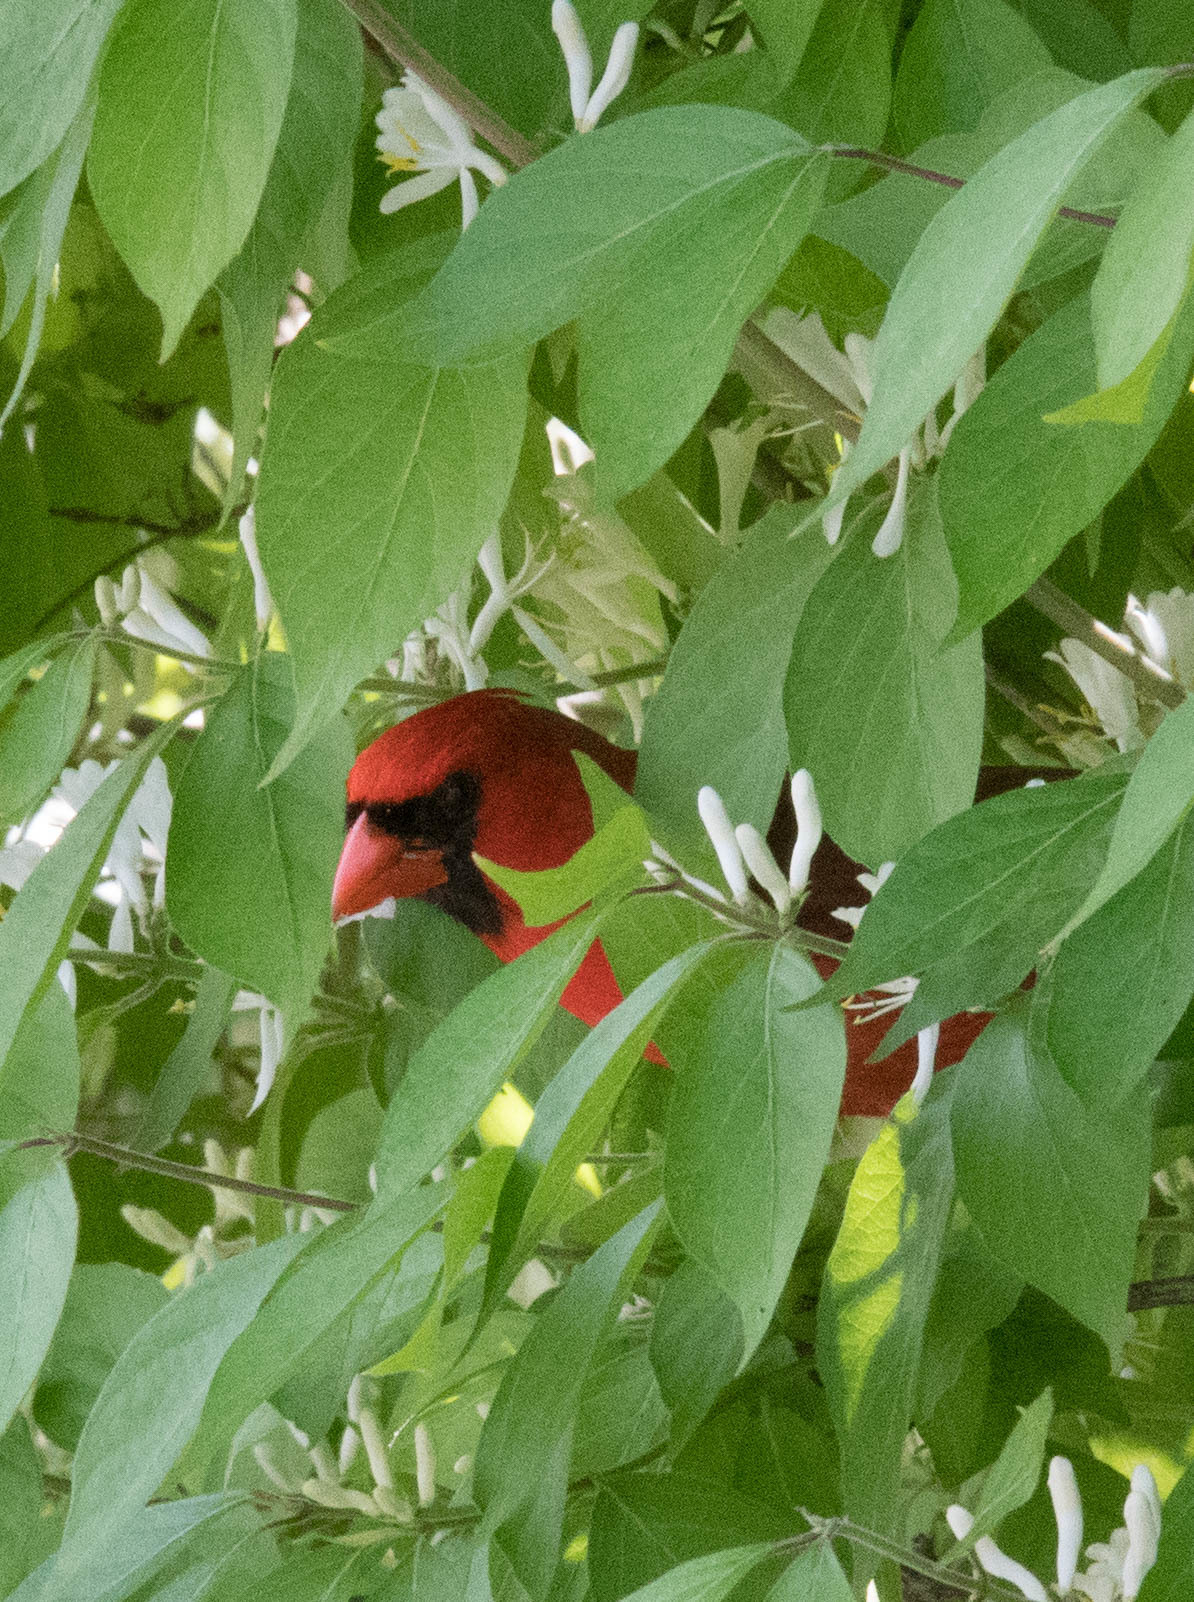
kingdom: Animalia
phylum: Chordata
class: Aves
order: Passeriformes
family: Cardinalidae
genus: Cardinalis
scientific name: Cardinalis cardinalis
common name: Northern cardinal
